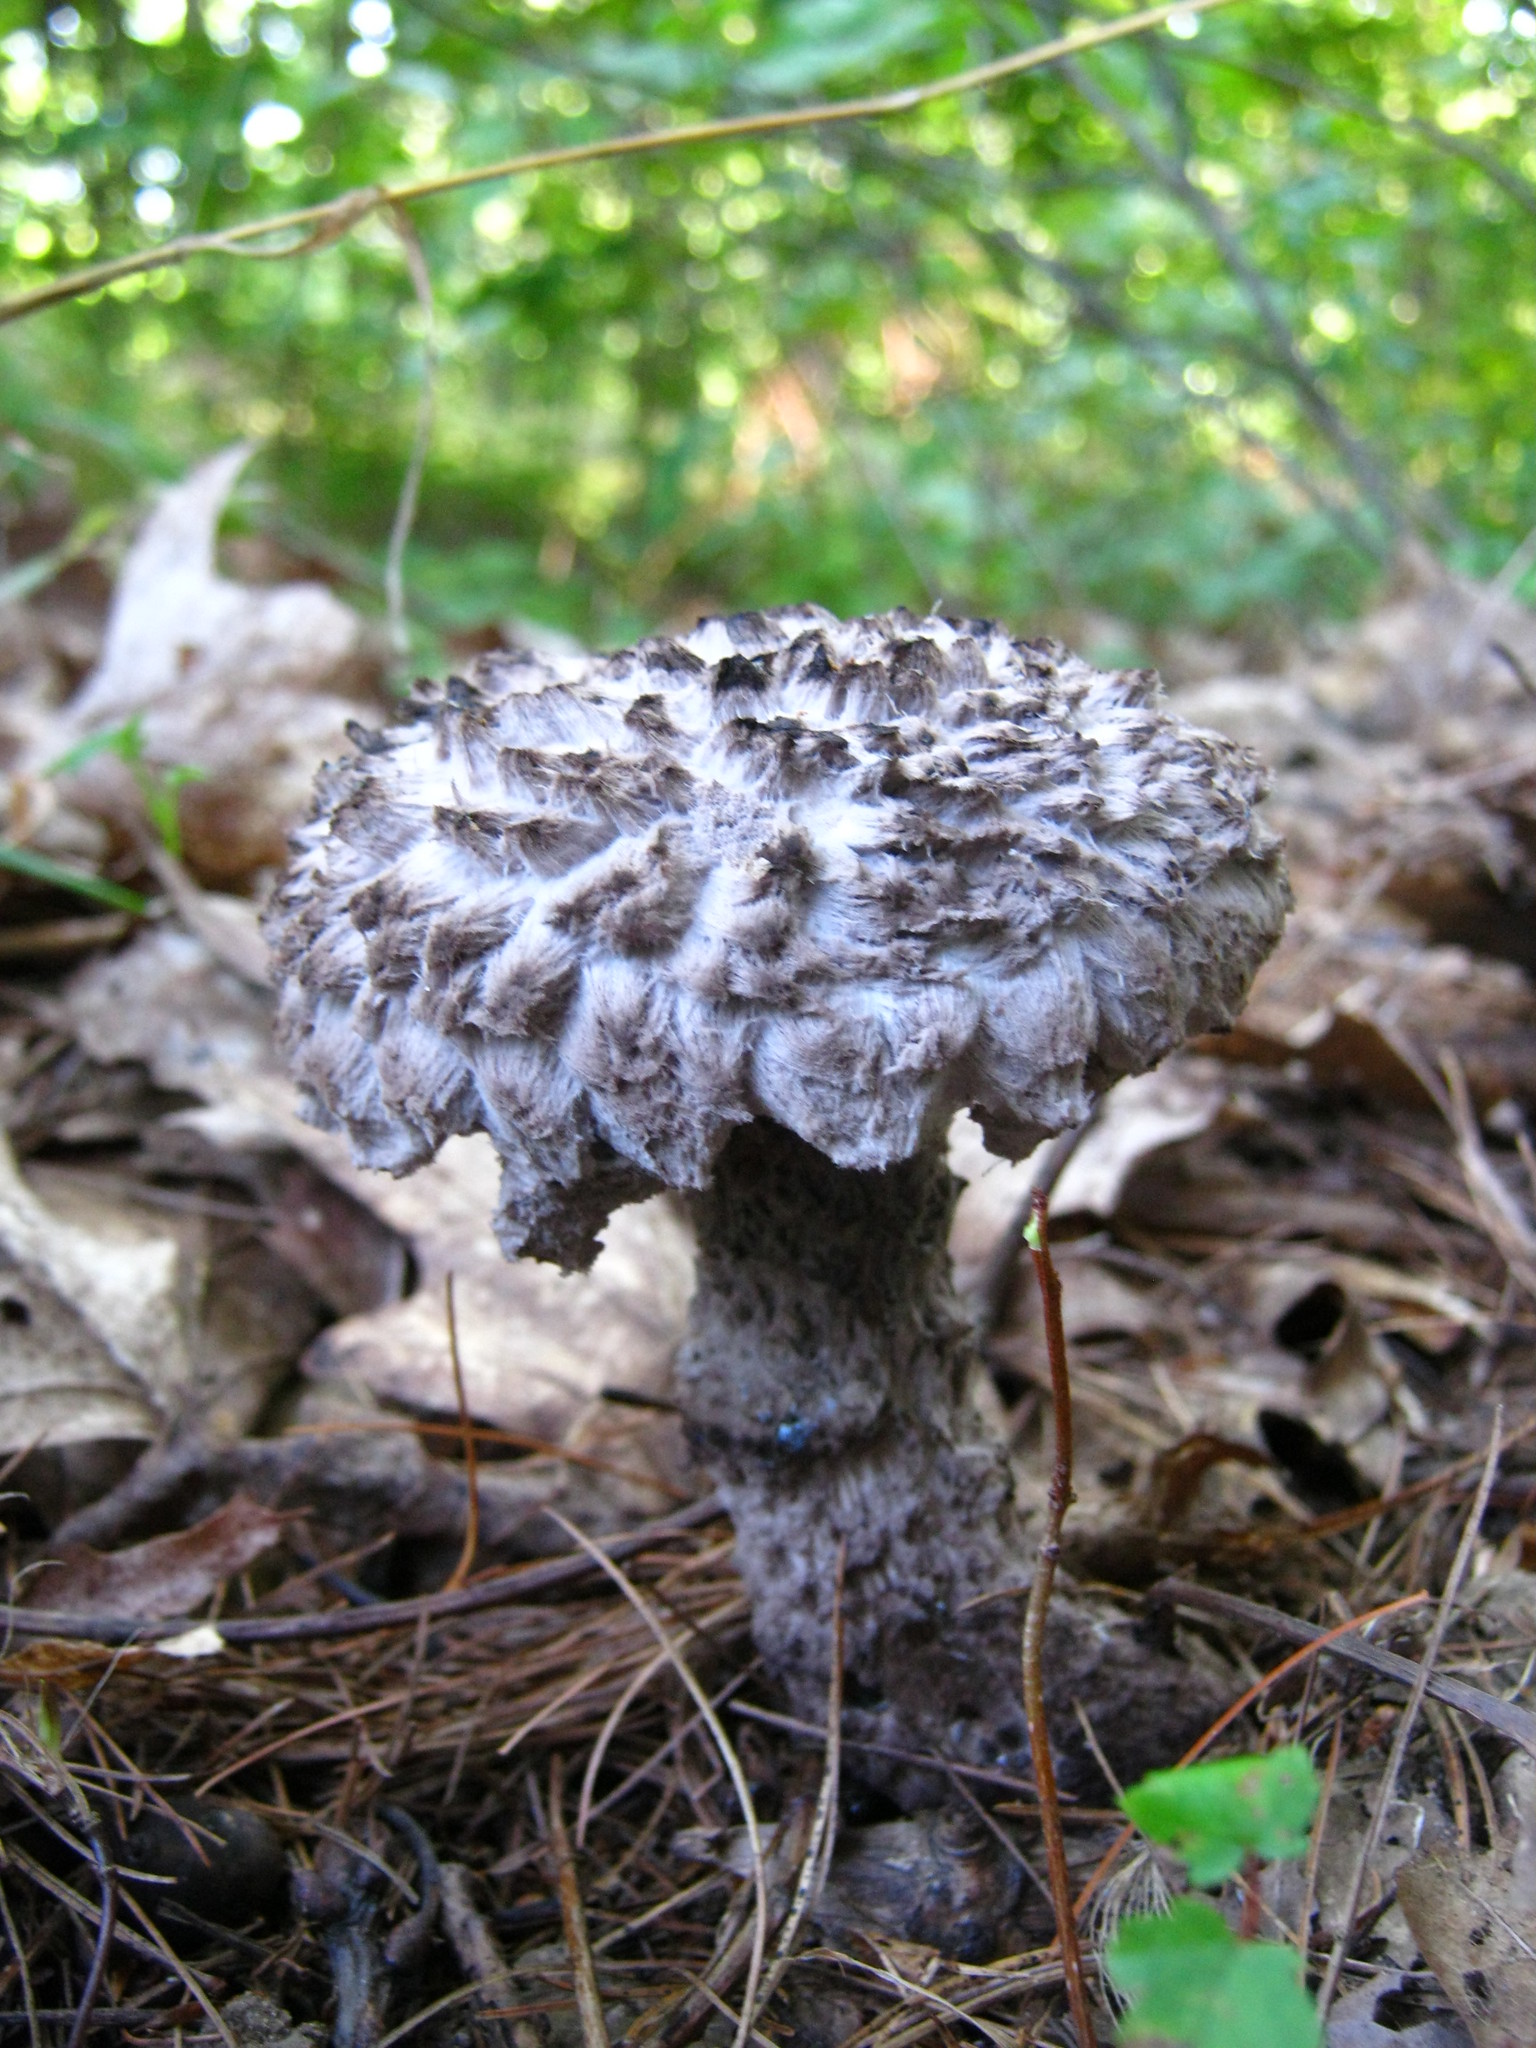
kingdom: Fungi
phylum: Basidiomycota
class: Agaricomycetes
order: Boletales
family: Boletaceae
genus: Strobilomyces
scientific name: Strobilomyces strobilaceus
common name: Old man of the woods
